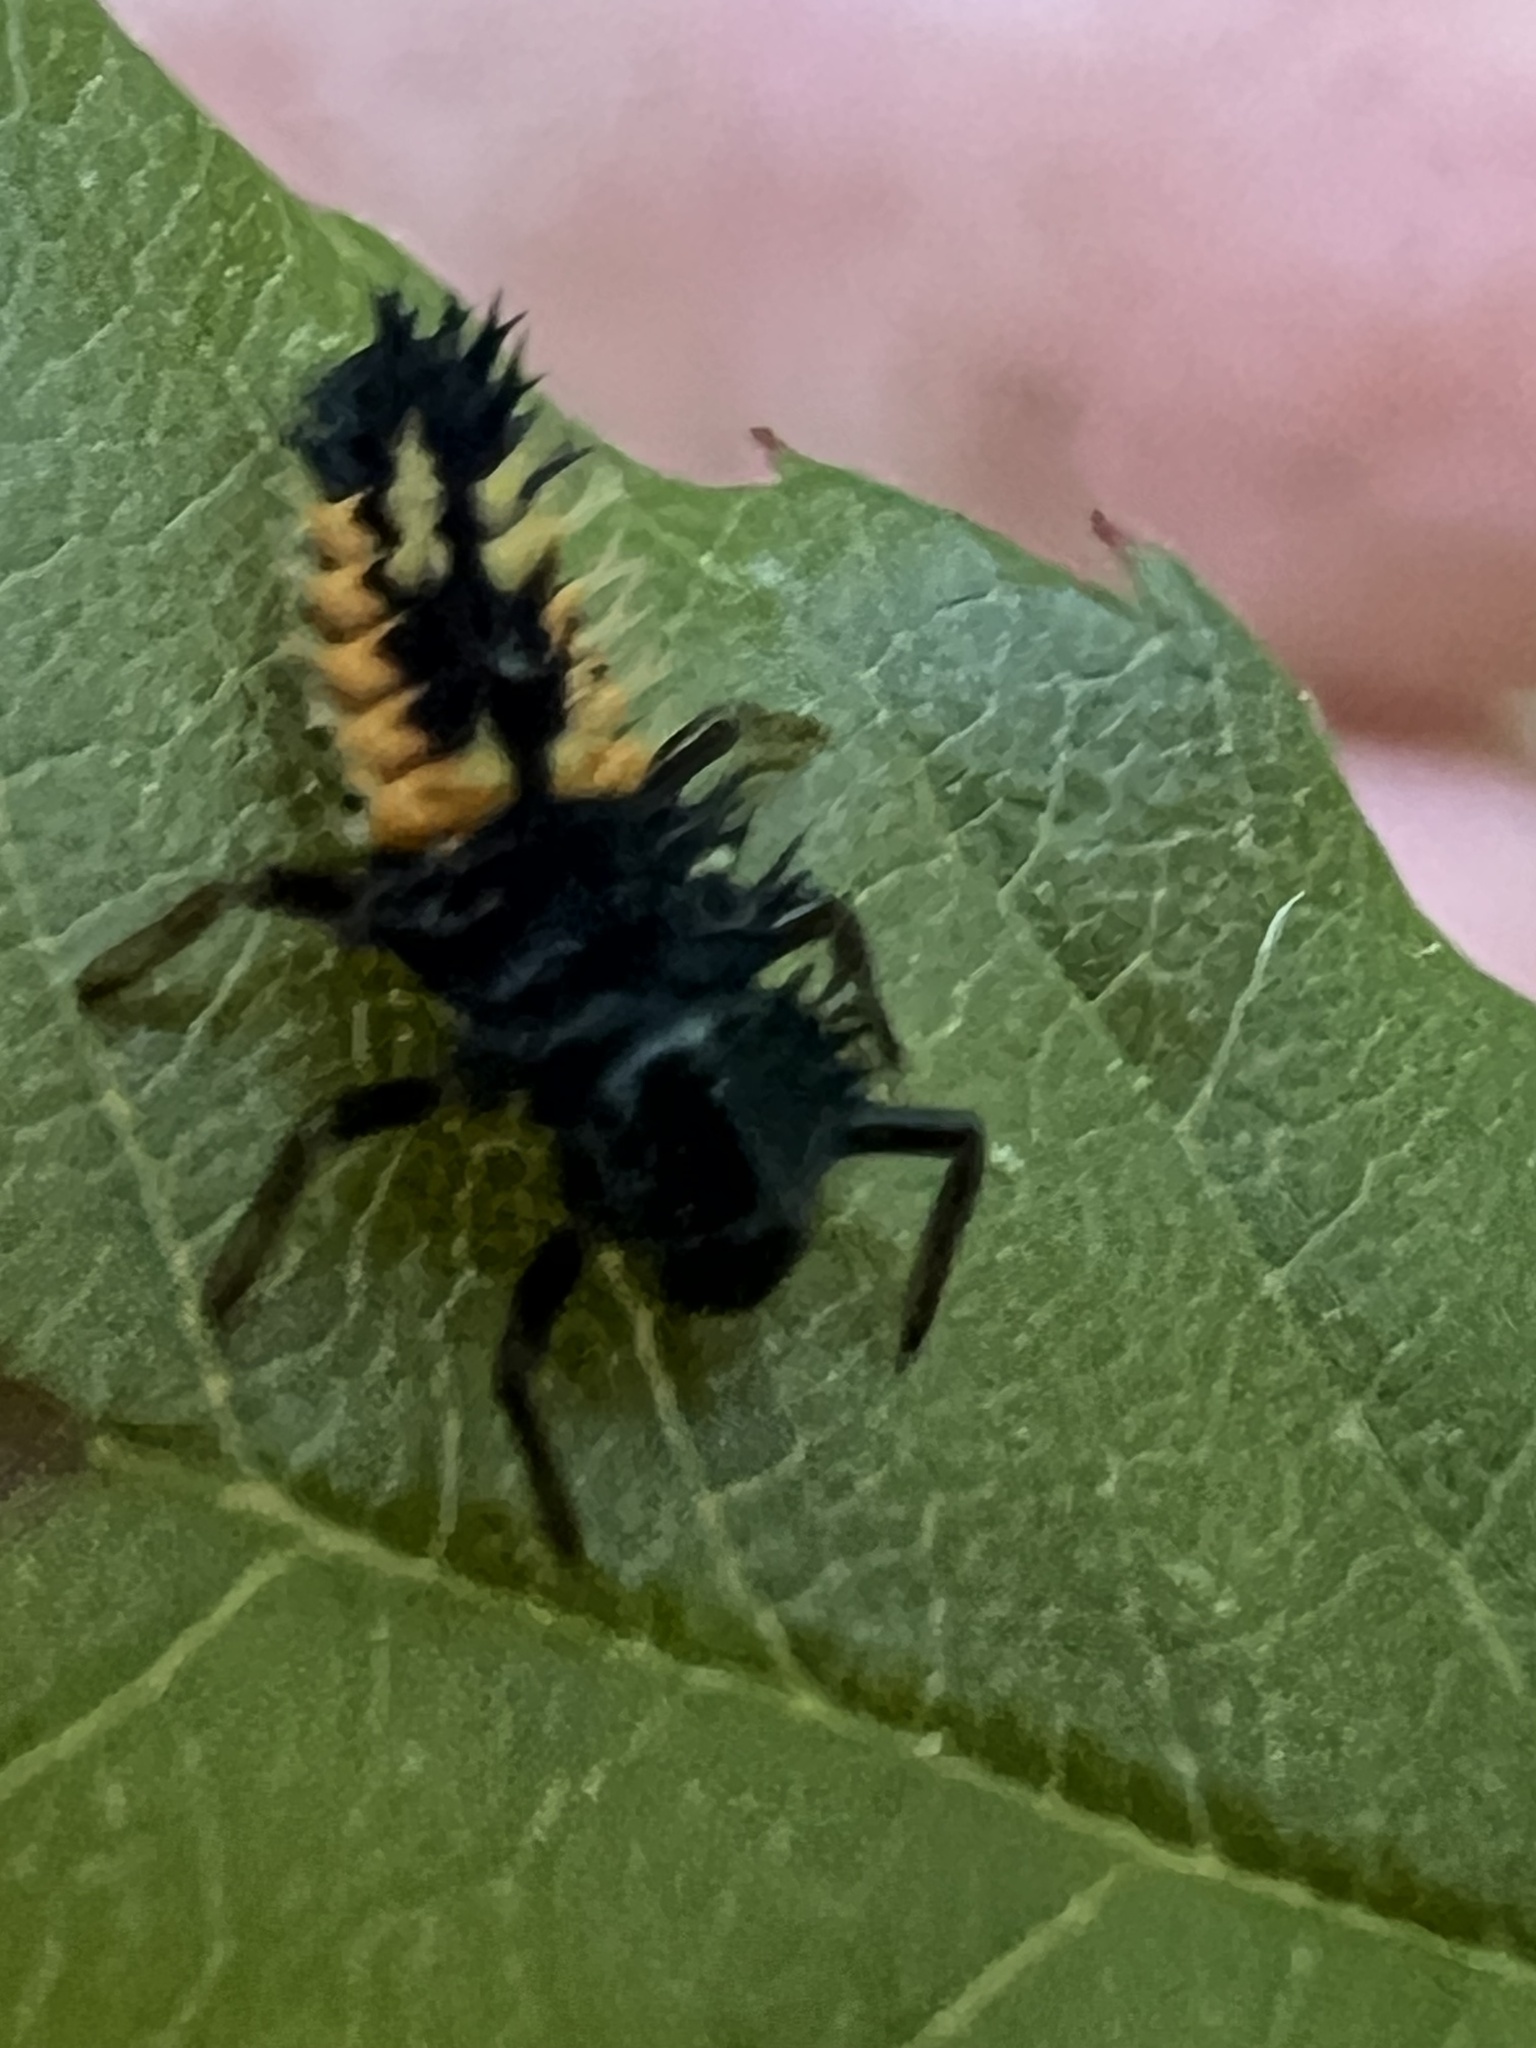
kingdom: Animalia
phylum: Arthropoda
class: Insecta
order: Coleoptera
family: Coccinellidae
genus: Harmonia
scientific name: Harmonia axyridis
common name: Harlequin ladybird
